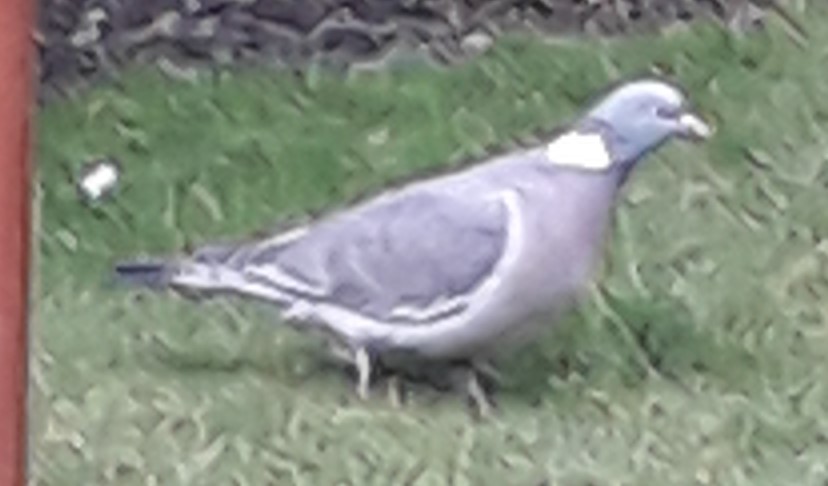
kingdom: Animalia
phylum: Chordata
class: Aves
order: Columbiformes
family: Columbidae
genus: Columba
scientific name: Columba palumbus
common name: Common wood pigeon
